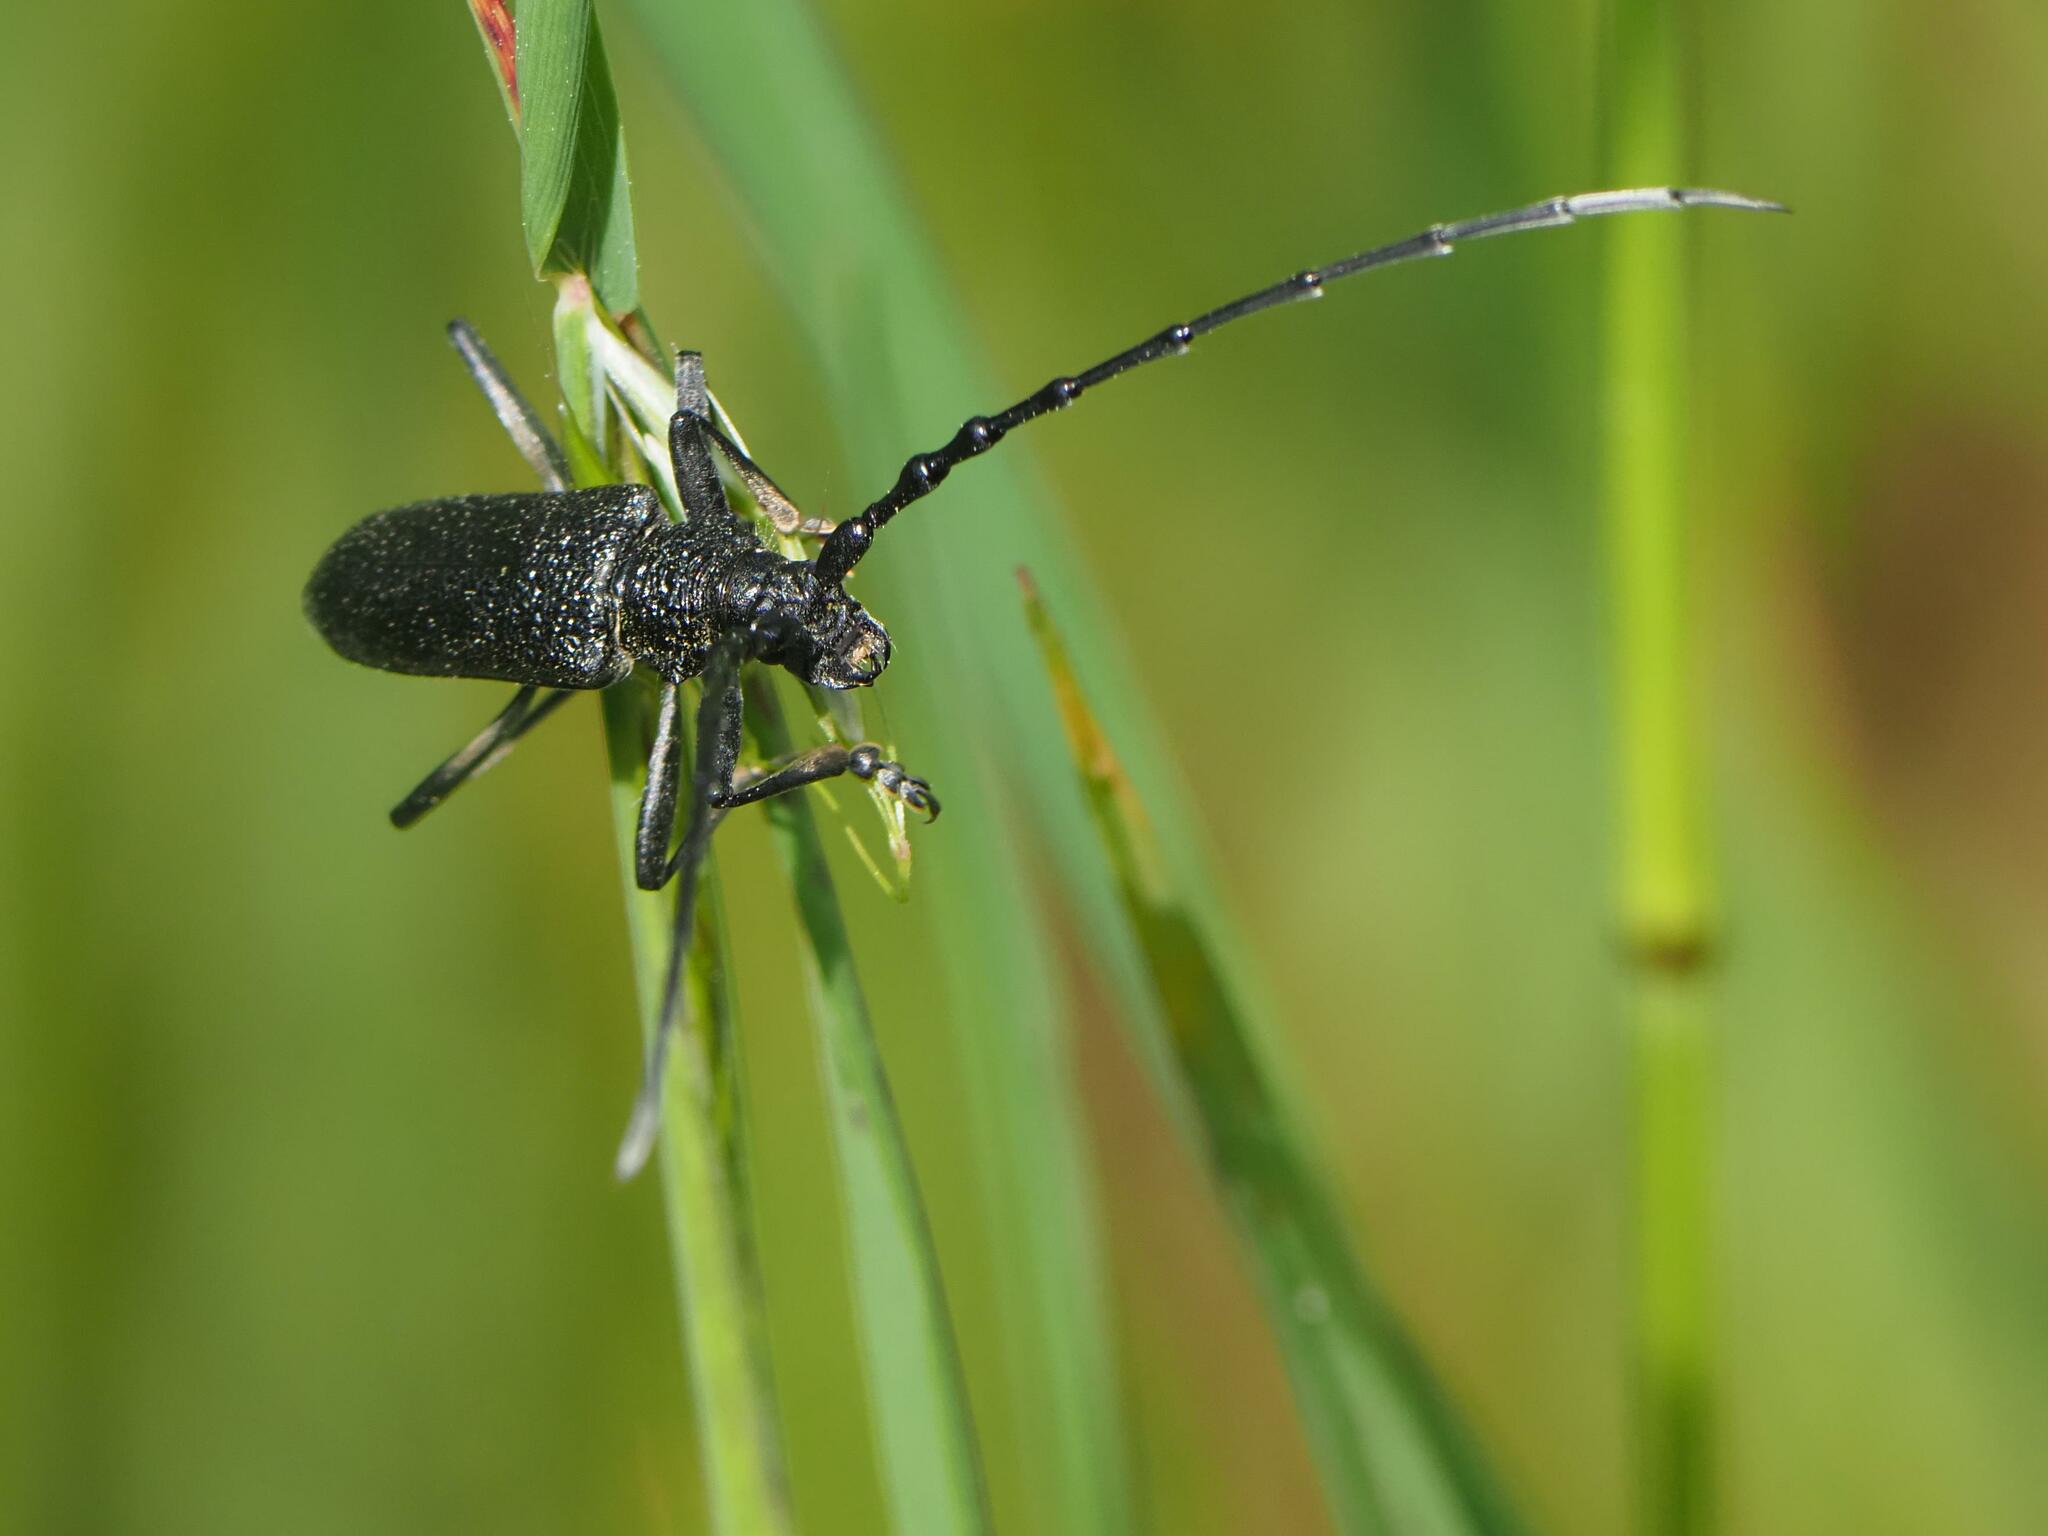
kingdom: Animalia
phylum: Arthropoda
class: Insecta
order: Coleoptera
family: Cerambycidae
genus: Cerambyx
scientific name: Cerambyx scopolii
